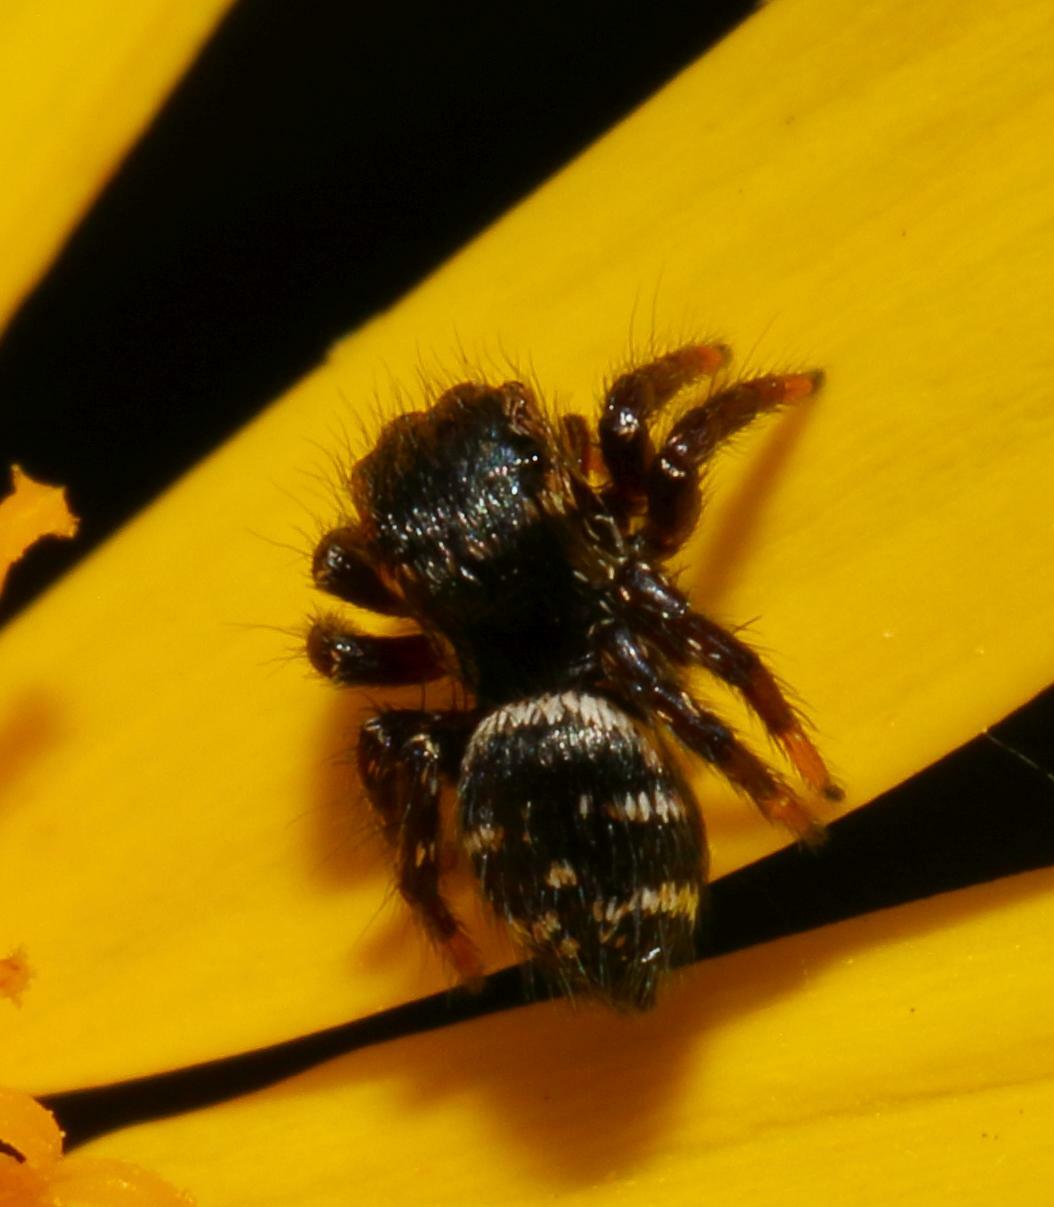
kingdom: Animalia
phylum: Arthropoda
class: Arachnida
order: Araneae
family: Salticidae
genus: Baryphas
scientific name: Baryphas ahenus
